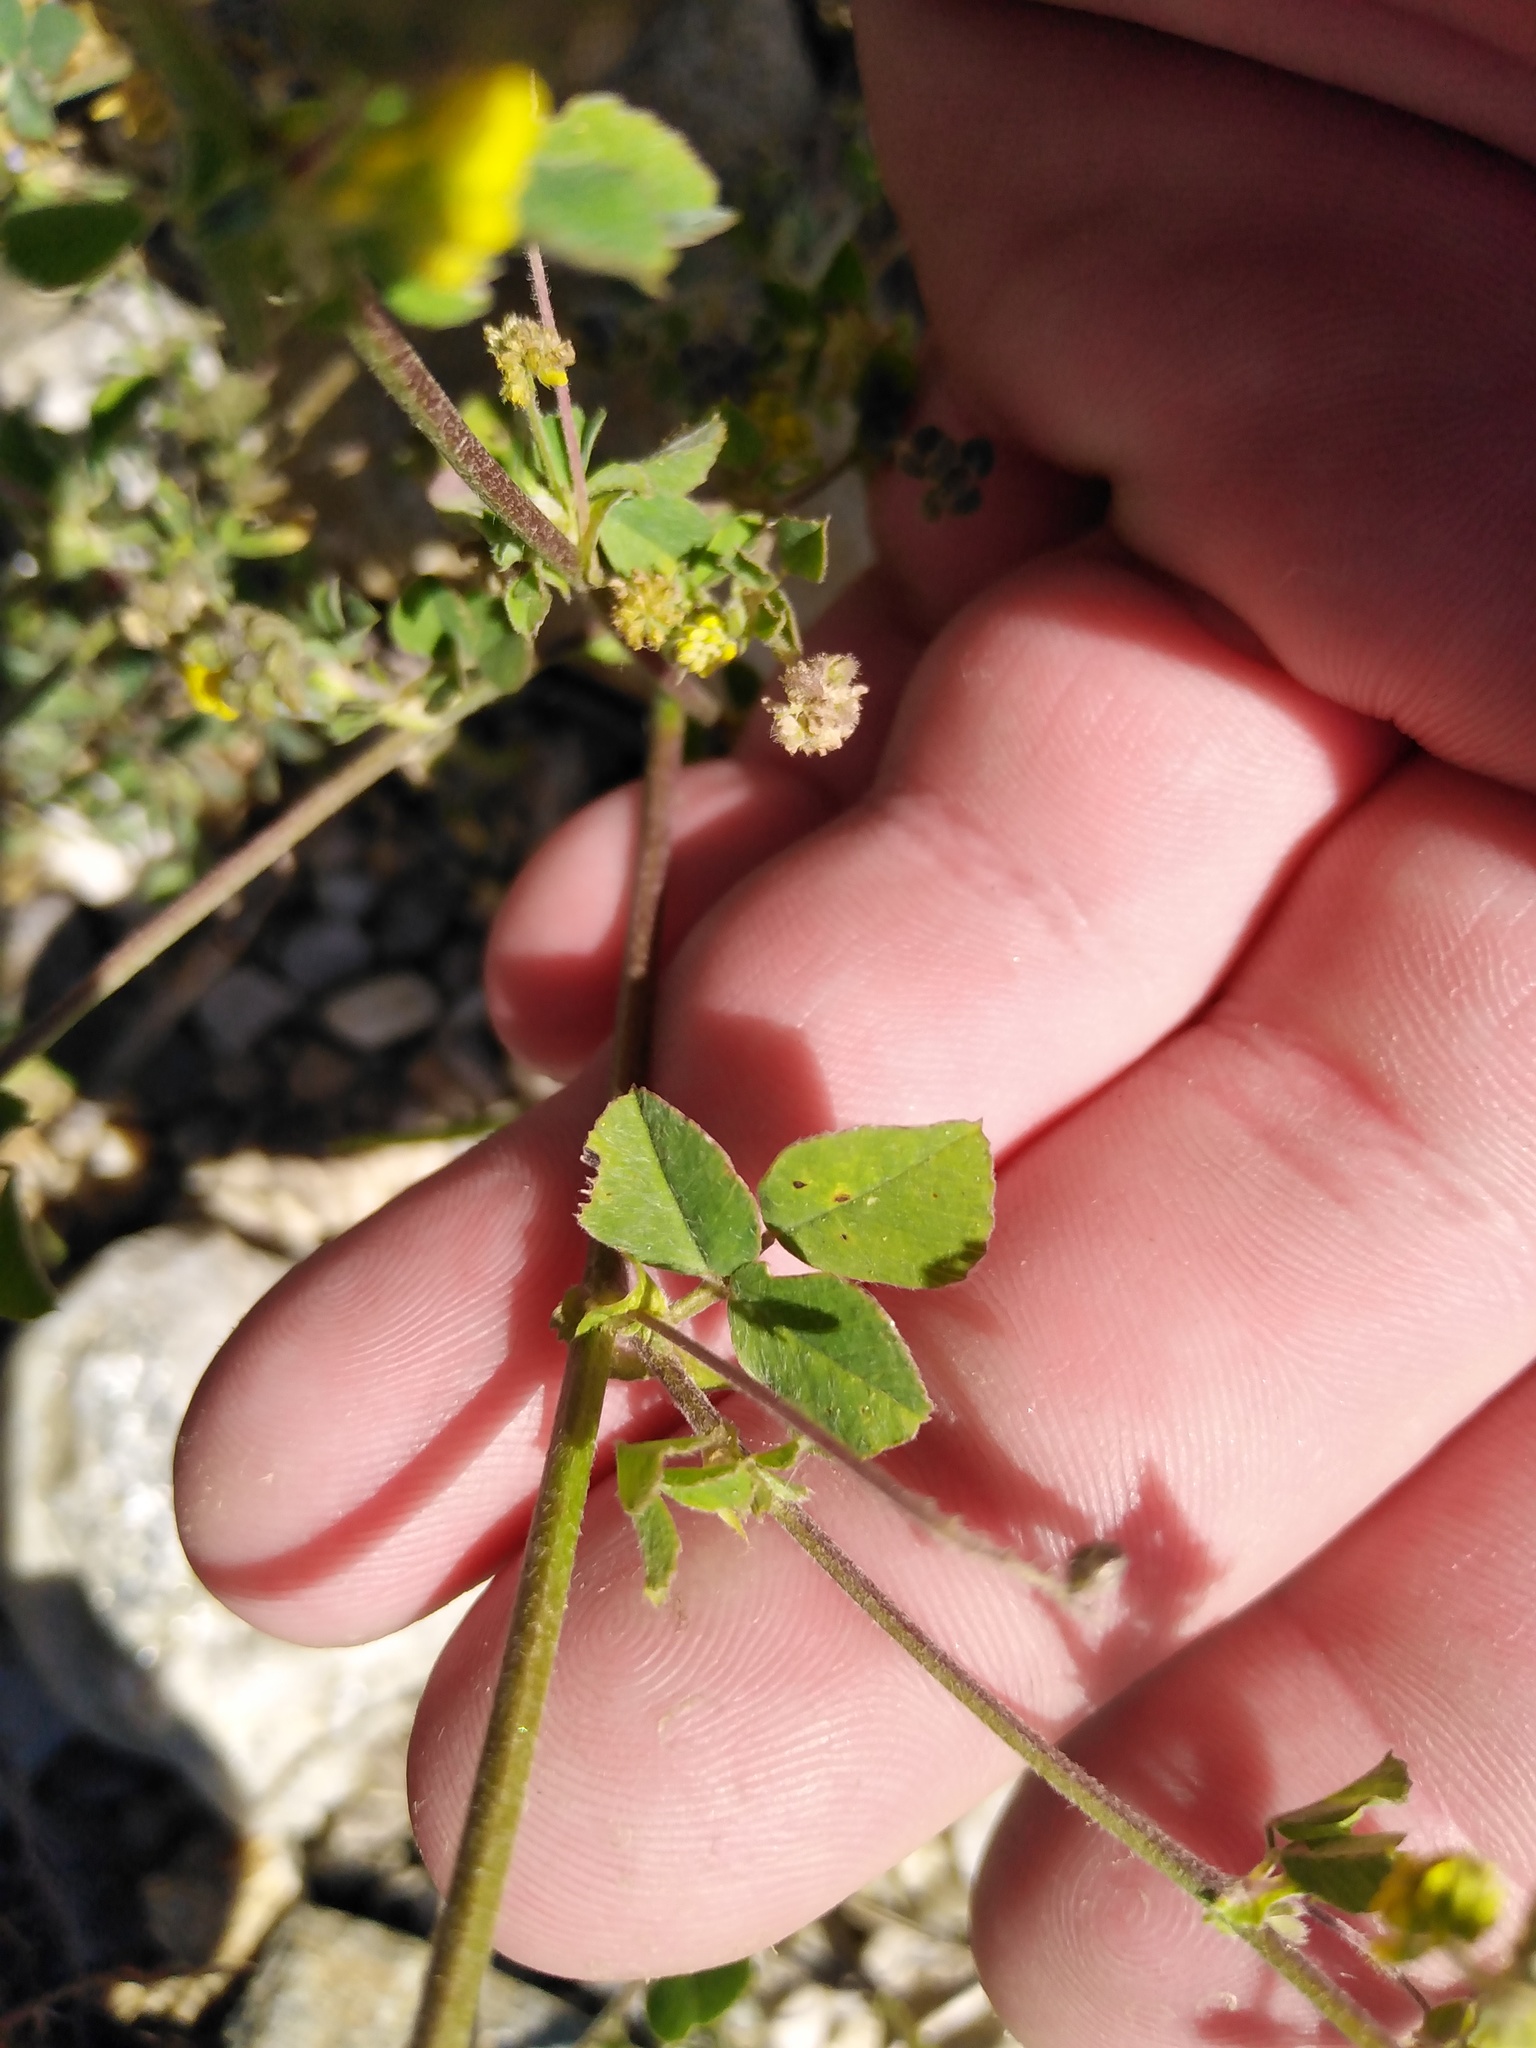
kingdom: Plantae
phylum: Tracheophyta
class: Magnoliopsida
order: Fabales
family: Fabaceae
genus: Medicago
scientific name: Medicago lupulina
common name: Black medick
